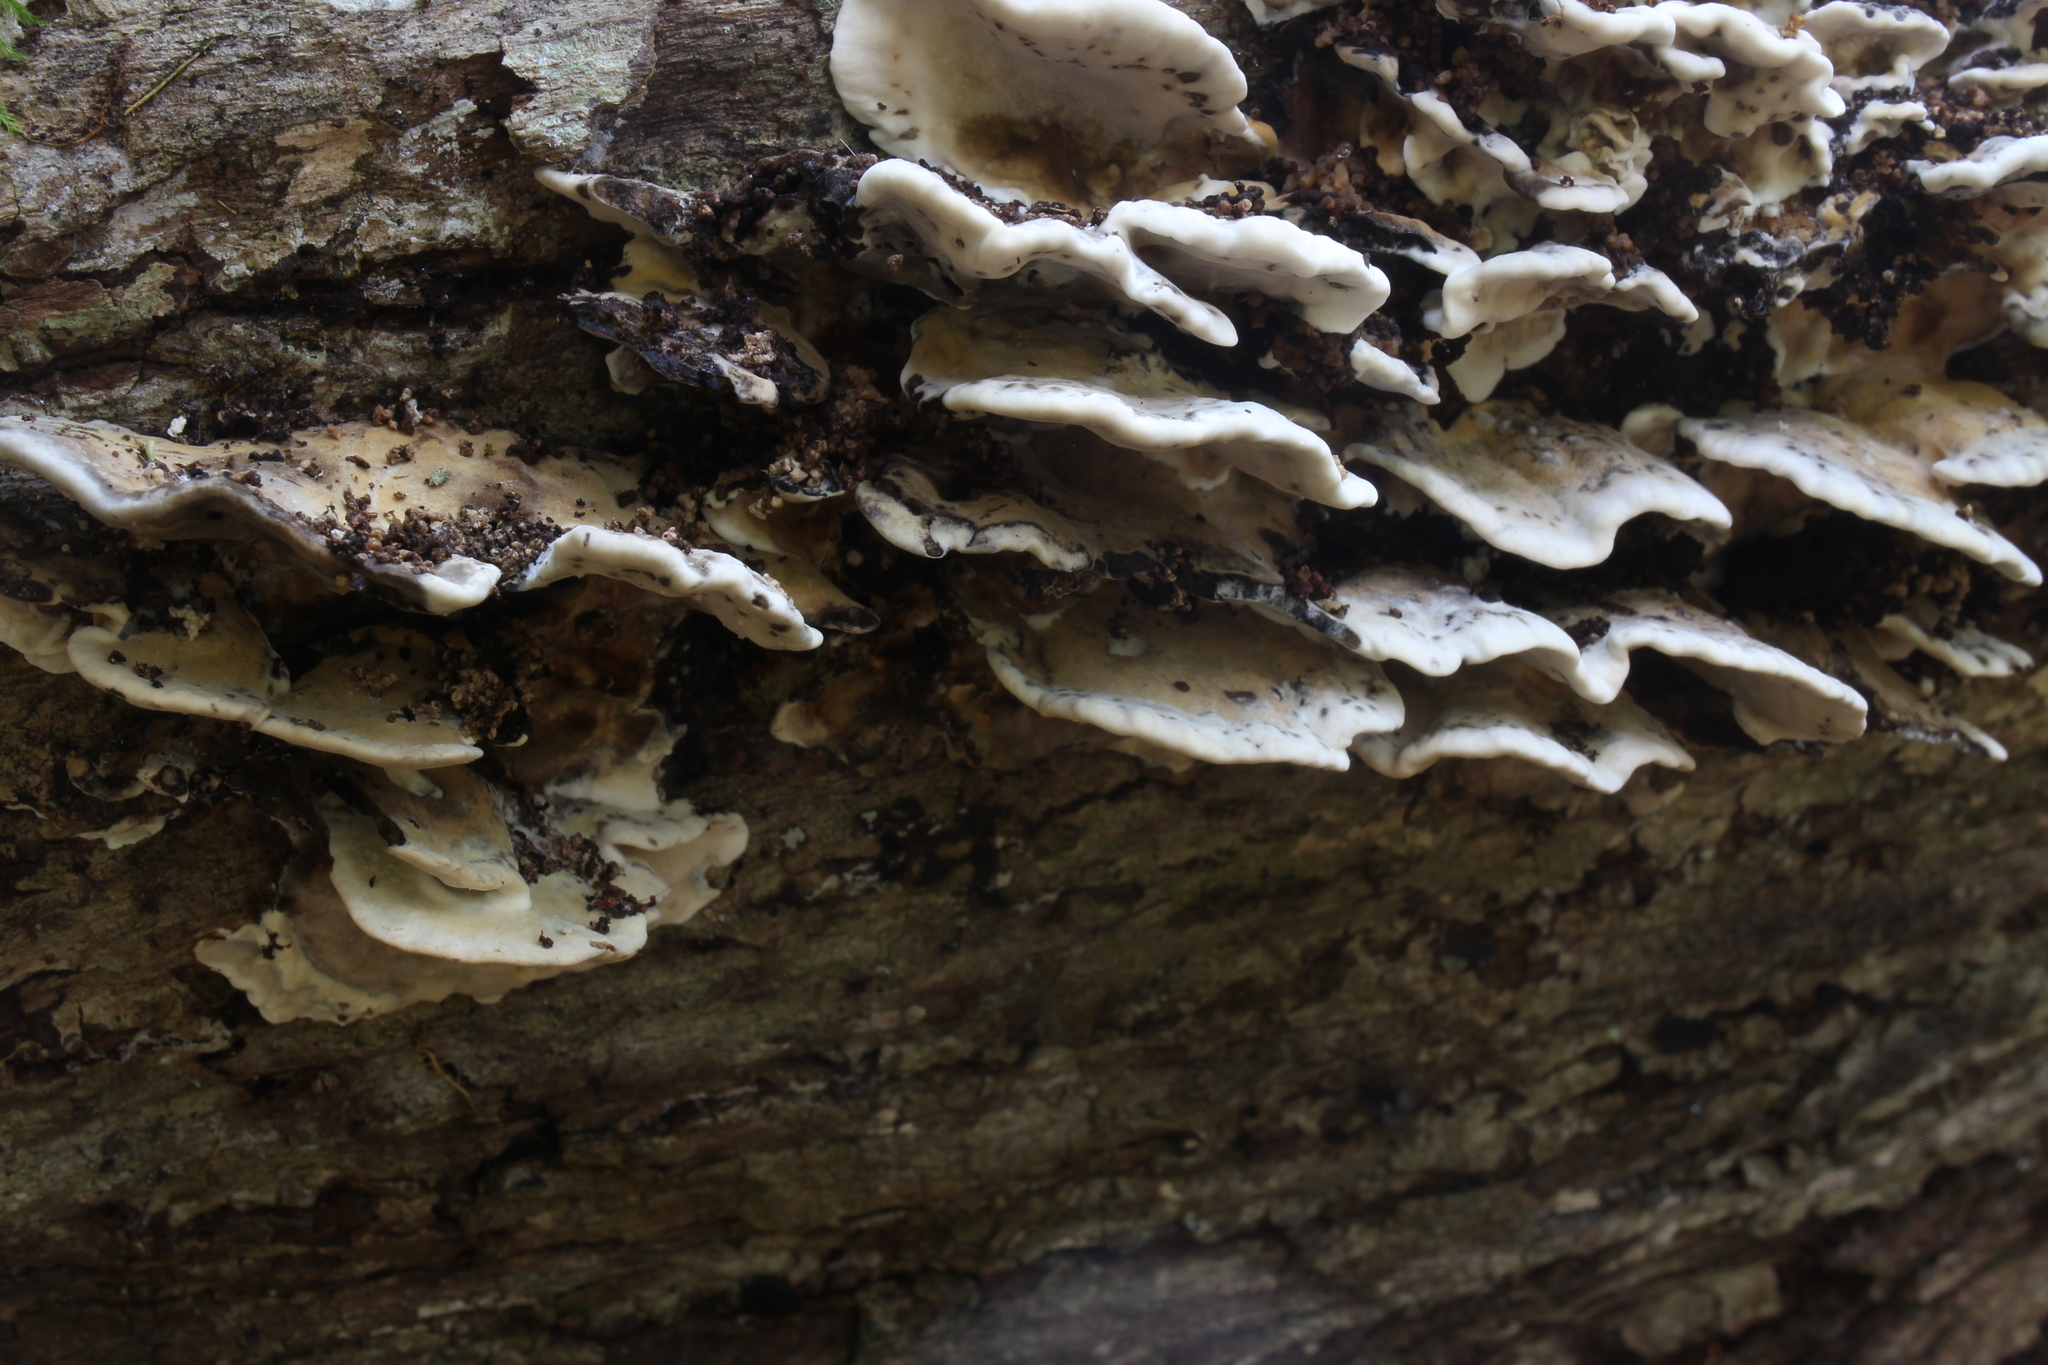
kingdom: Fungi
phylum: Basidiomycota
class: Agaricomycetes
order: Polyporales
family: Phanerochaetaceae
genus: Bjerkandera
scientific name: Bjerkandera adusta
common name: Smoky bracket
